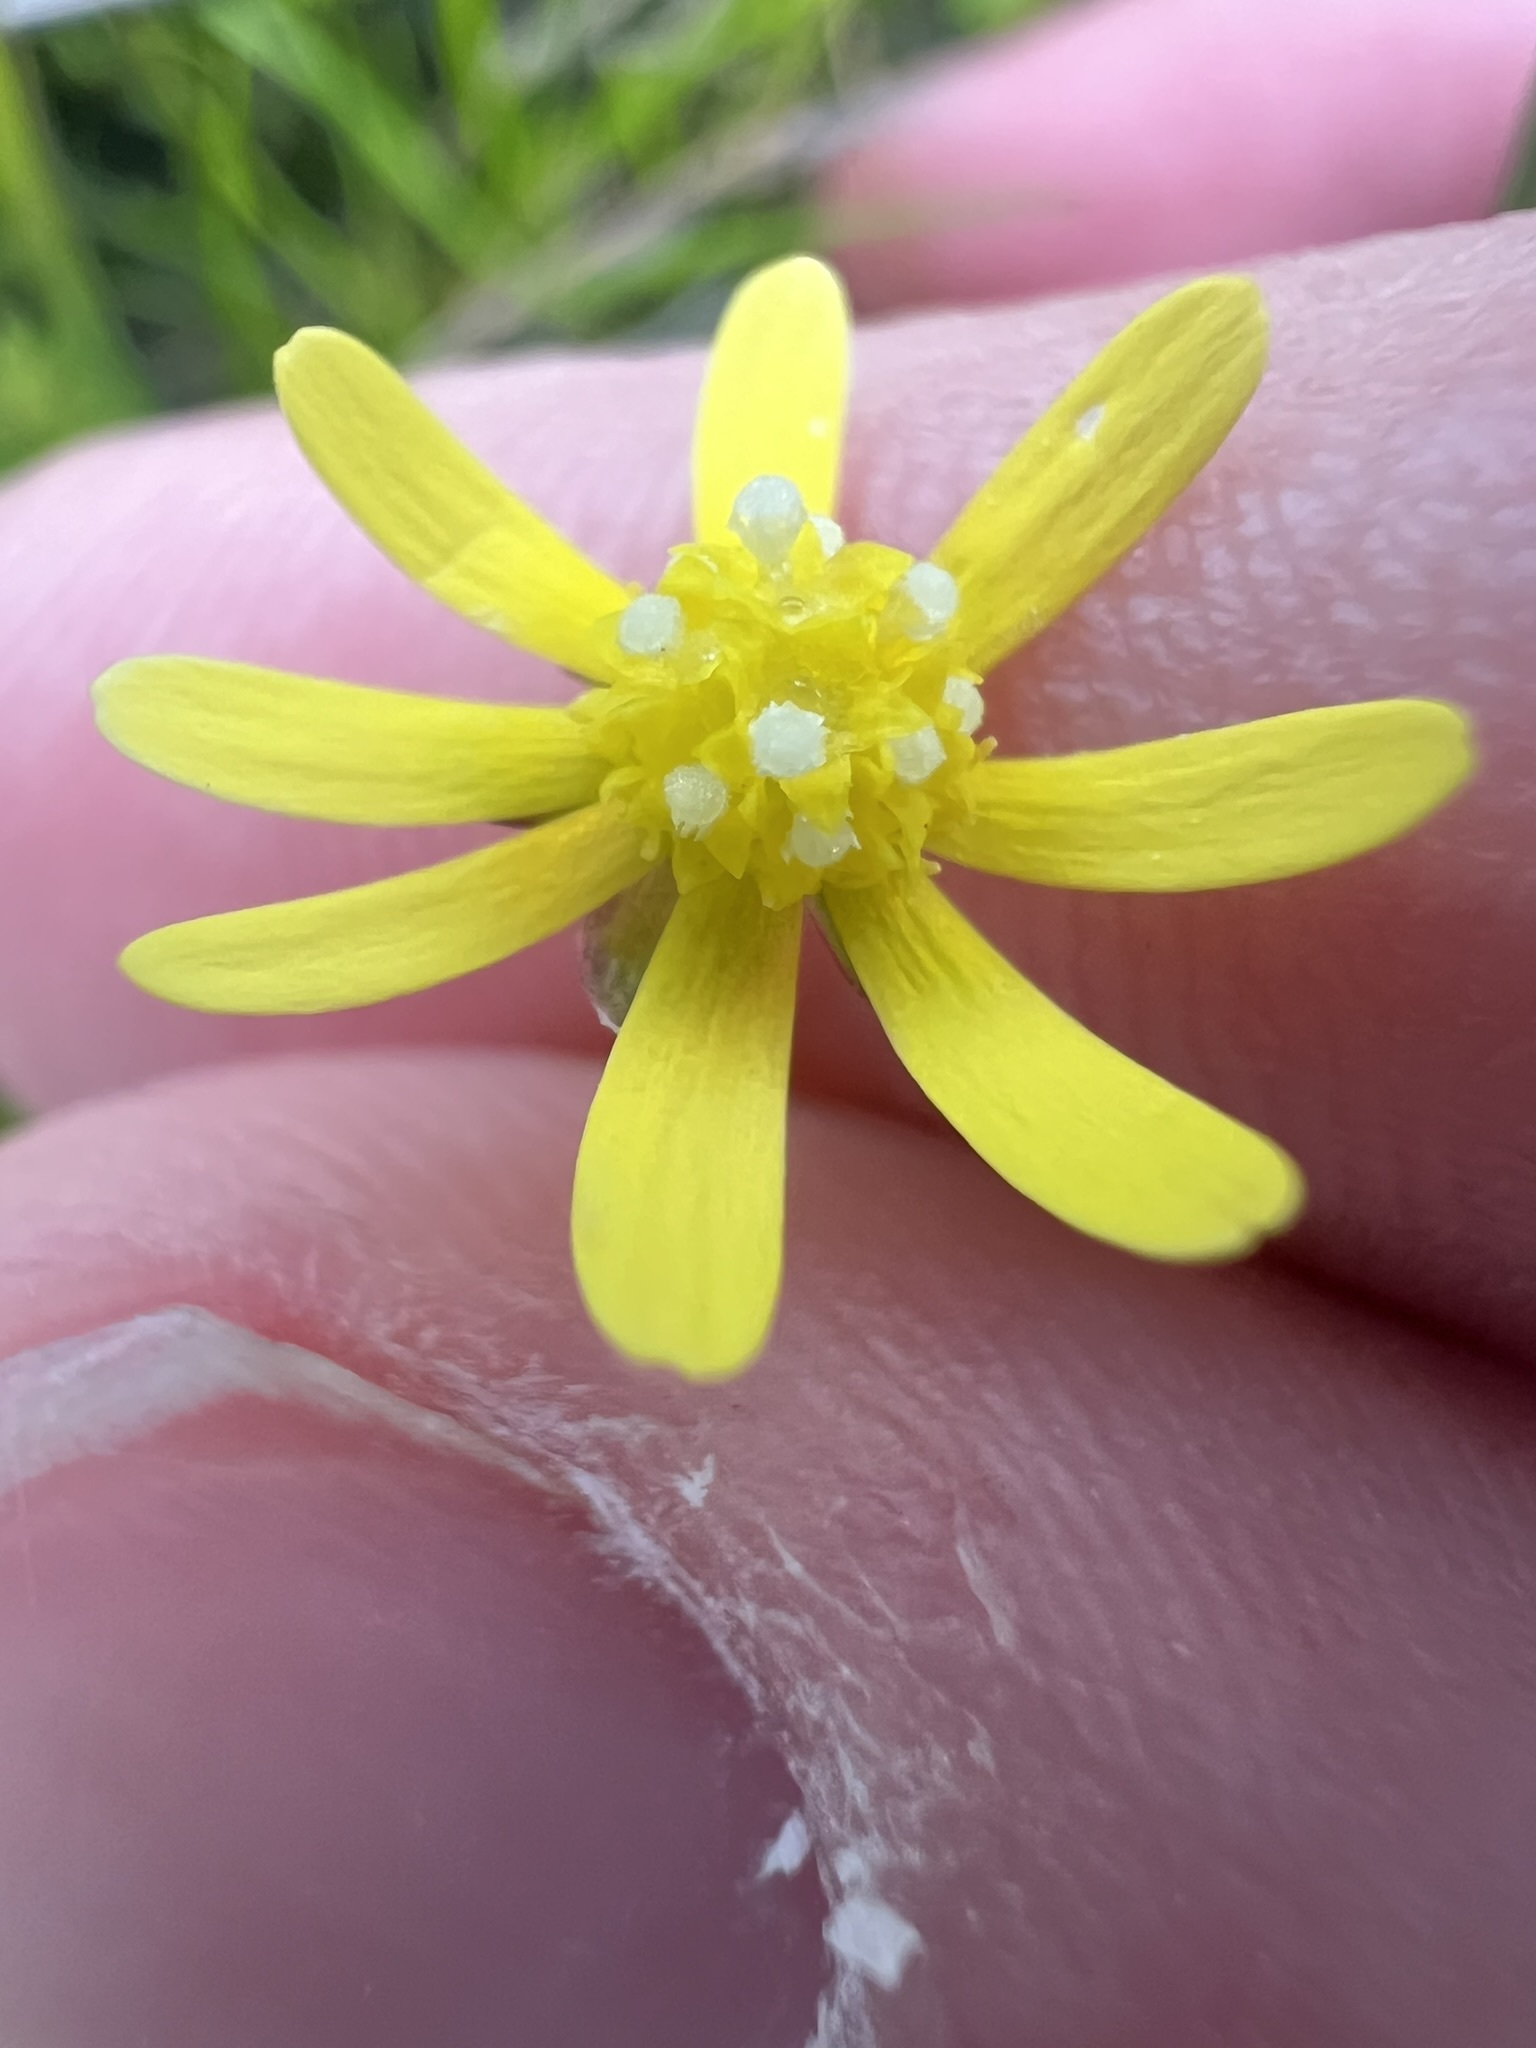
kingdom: Plantae
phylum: Tracheophyta
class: Magnoliopsida
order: Asterales
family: Asteraceae
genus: Blennosperma
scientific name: Blennosperma nanum
